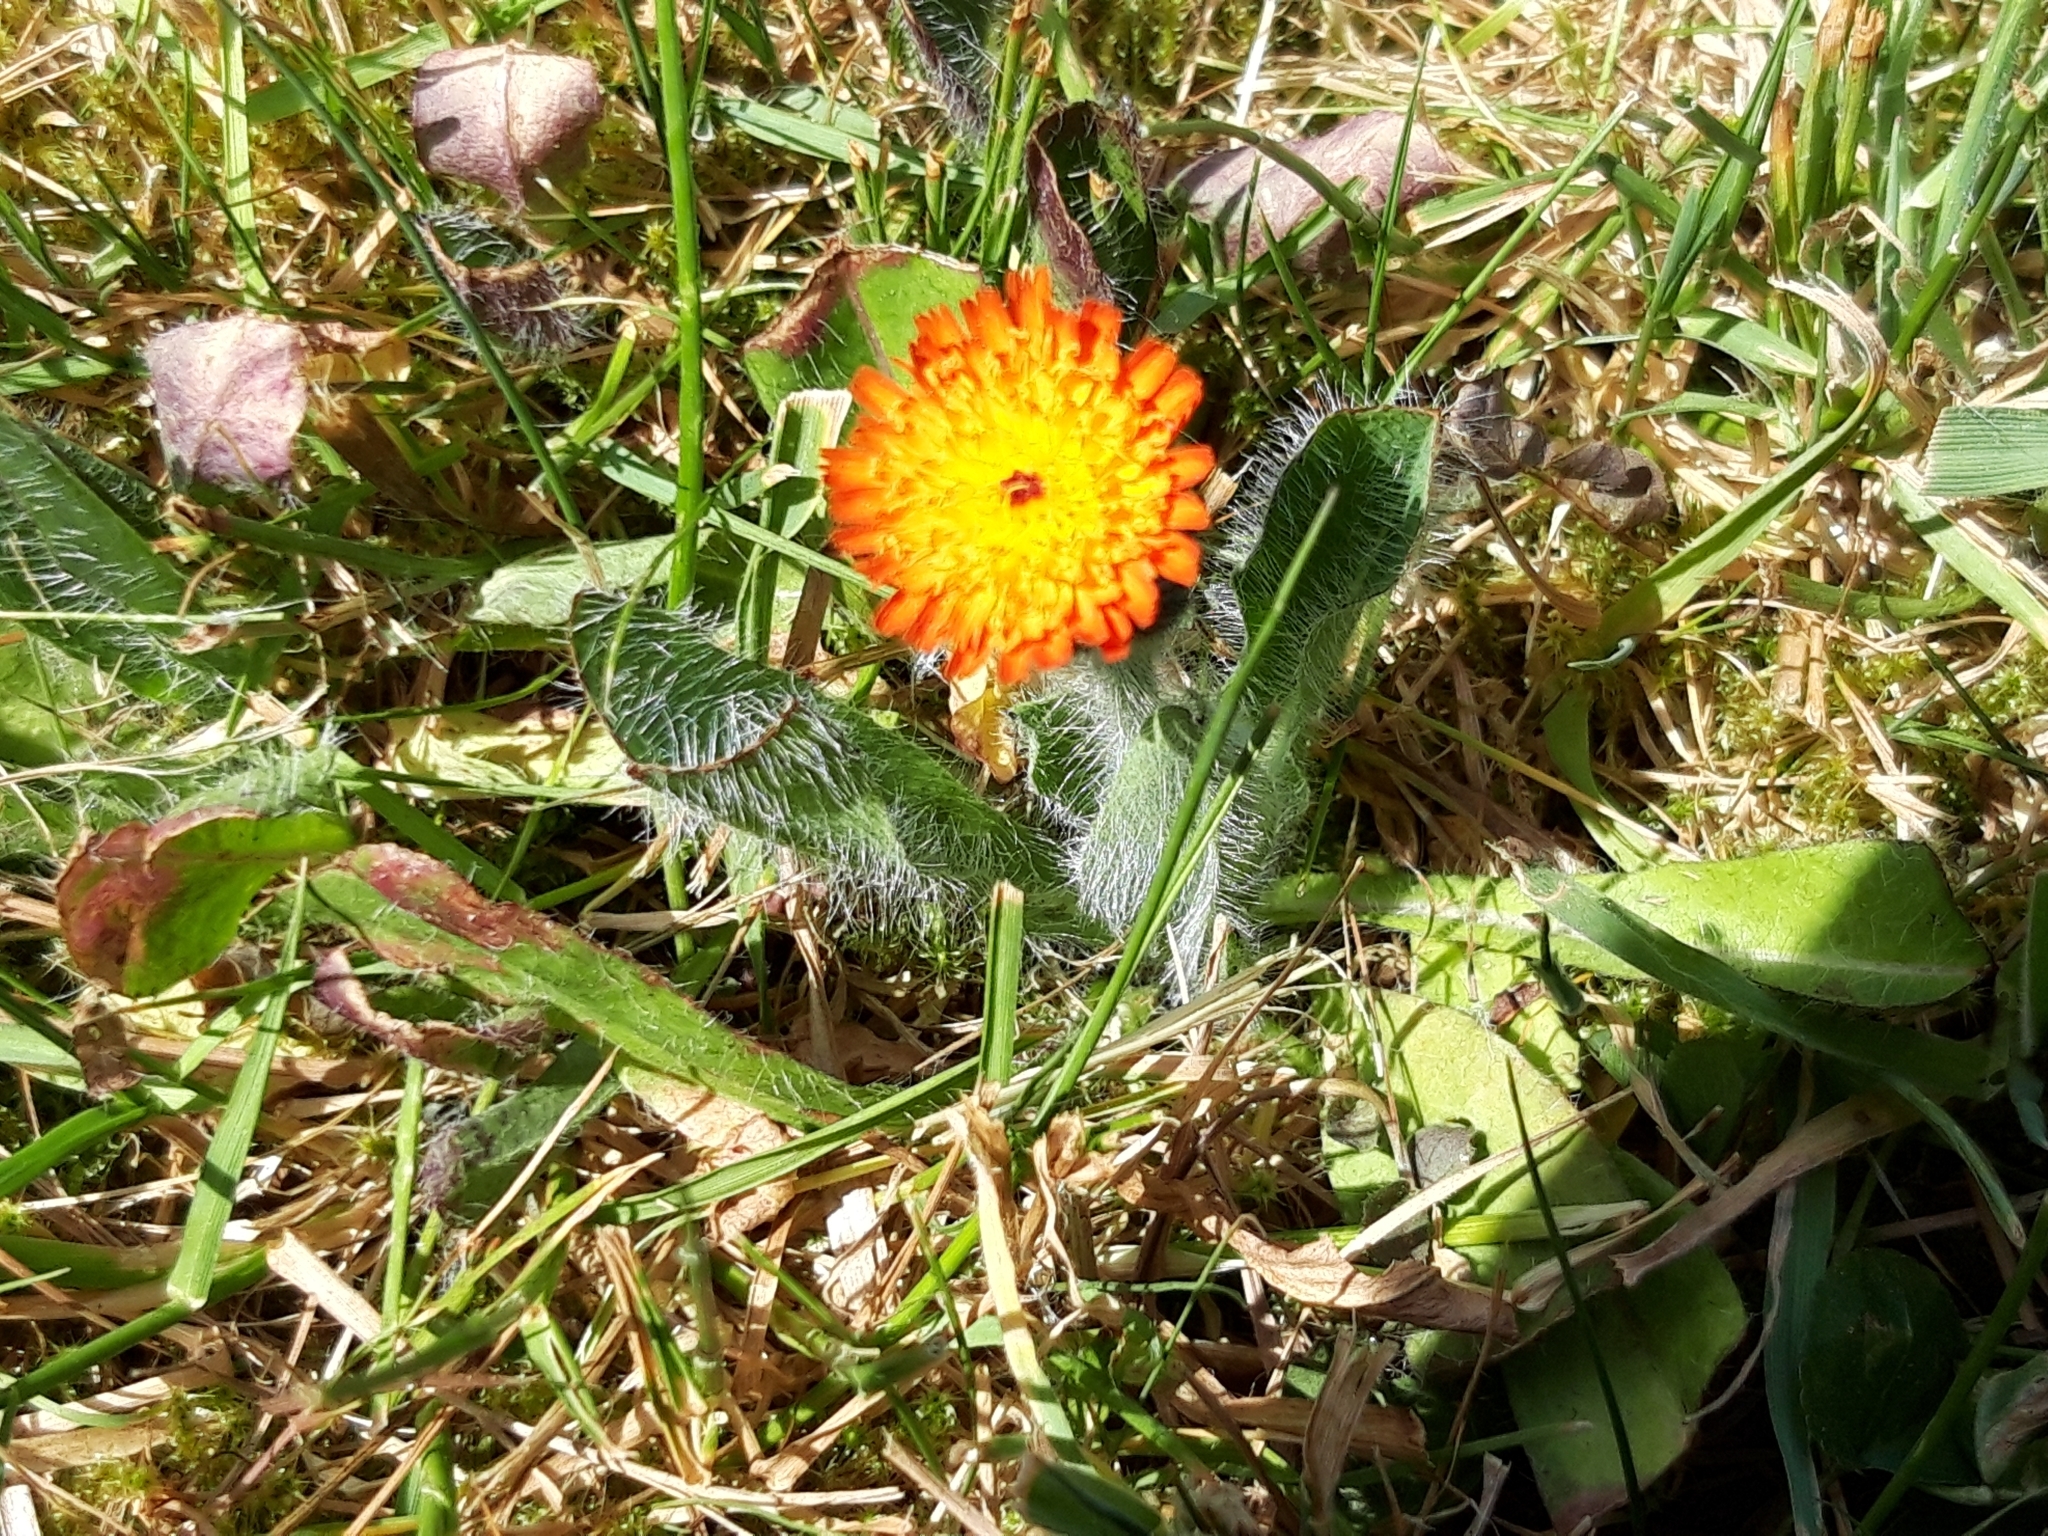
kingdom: Plantae
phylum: Tracheophyta
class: Magnoliopsida
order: Asterales
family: Asteraceae
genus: Pilosella
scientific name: Pilosella aurantiaca
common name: Fox-and-cubs
